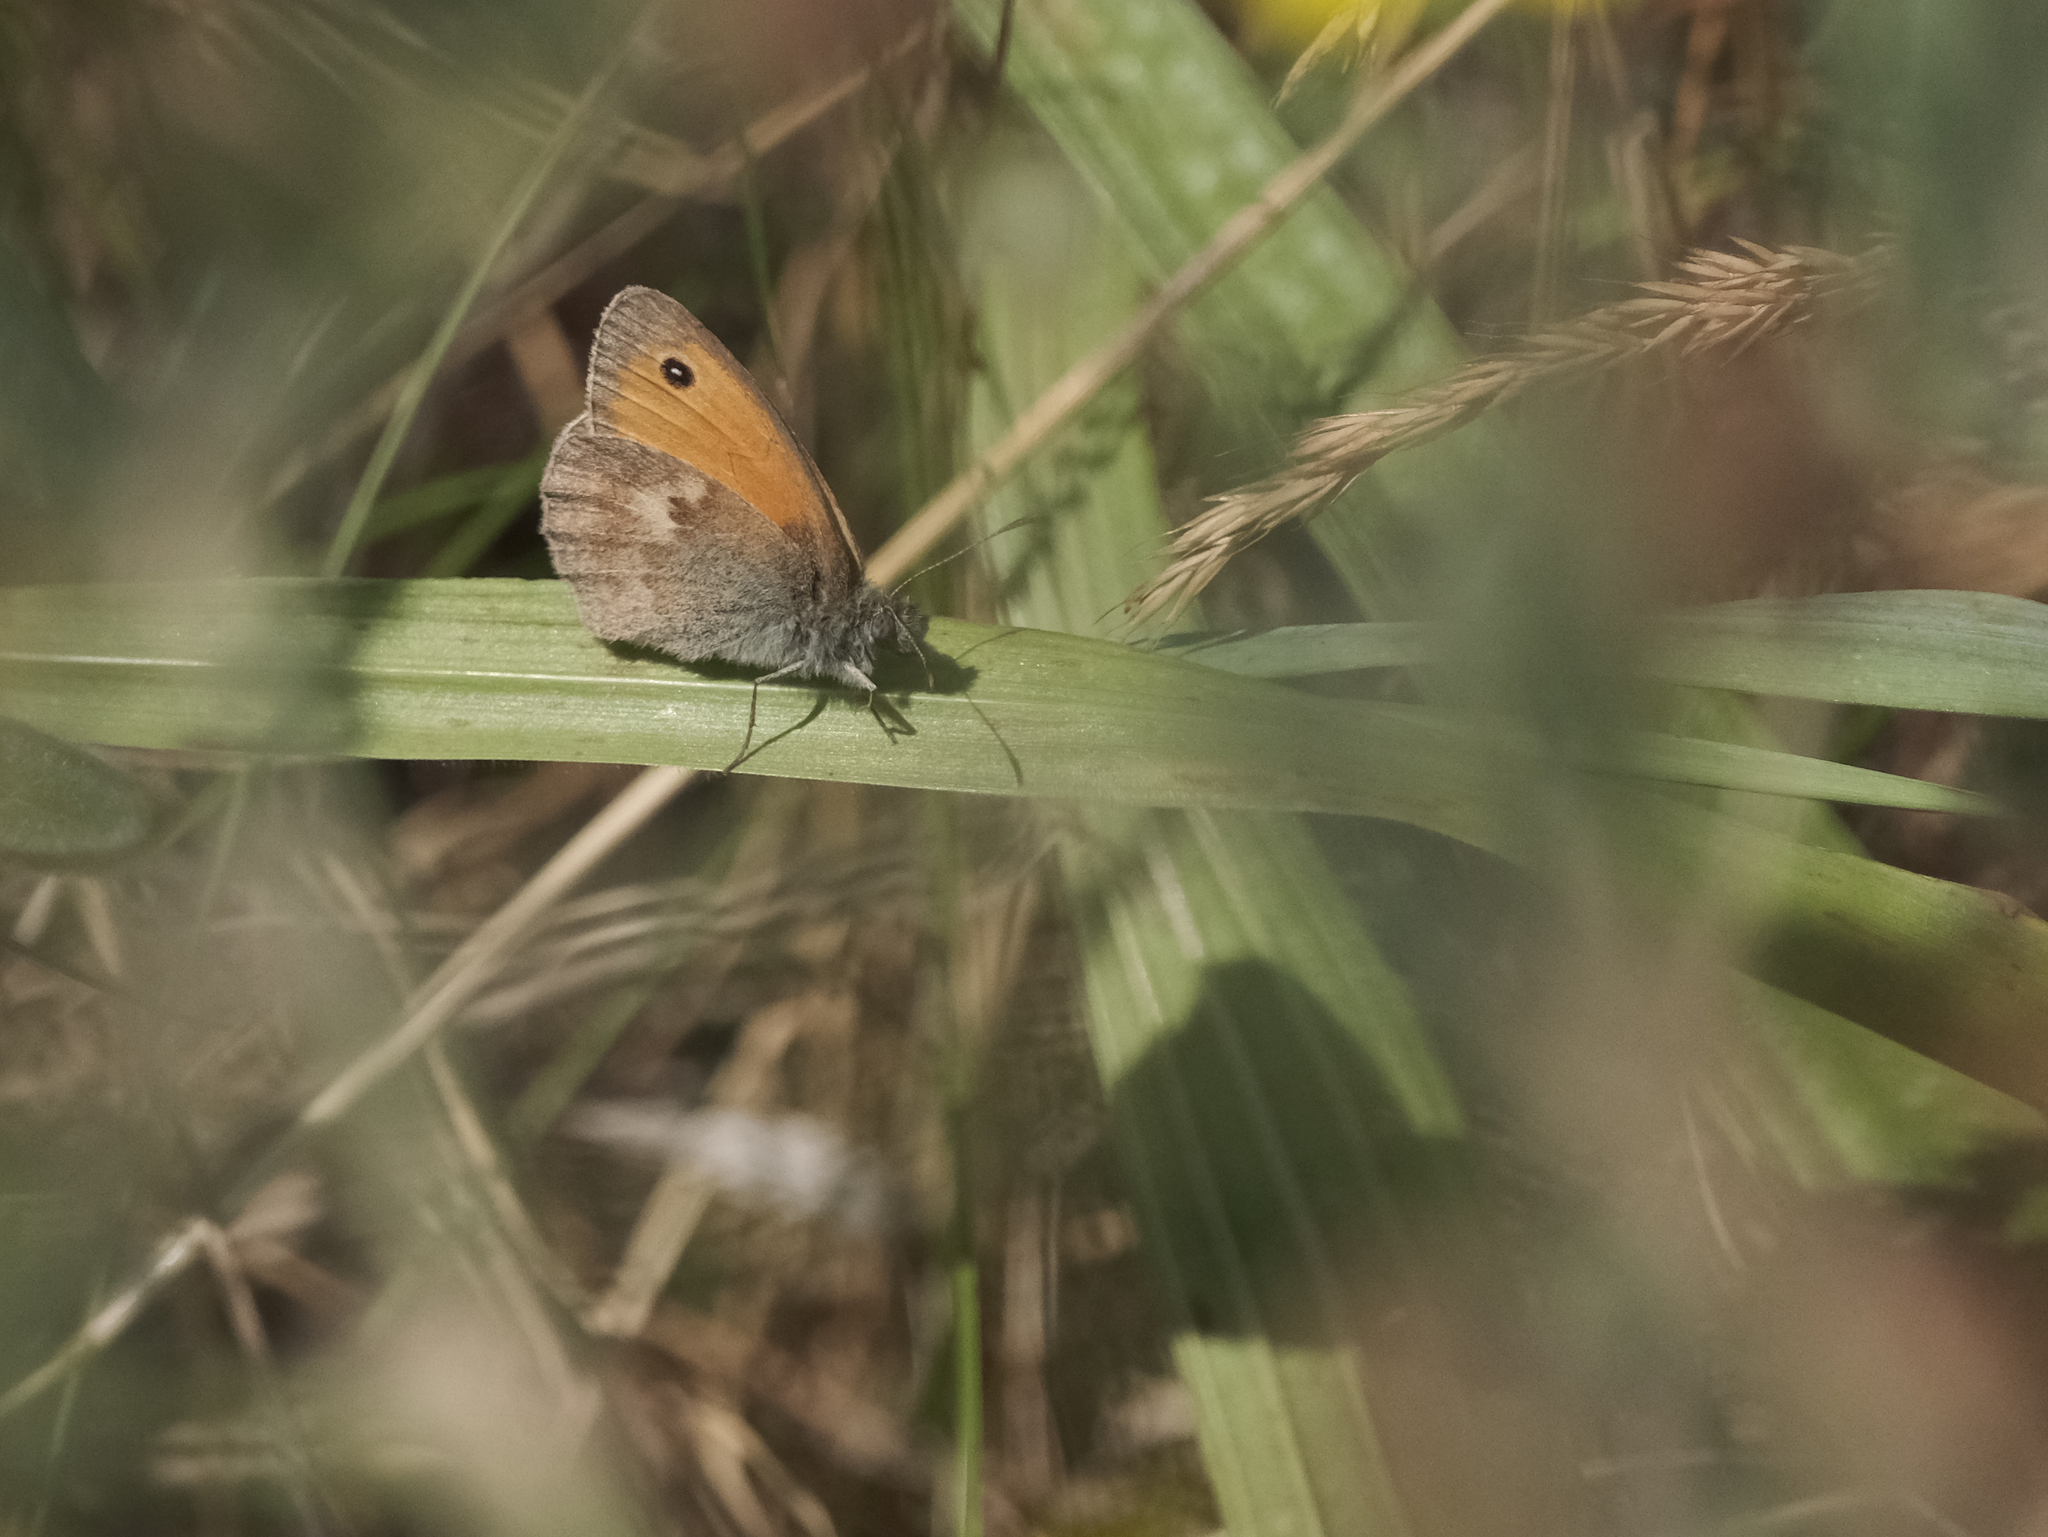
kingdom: Animalia
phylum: Arthropoda
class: Insecta
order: Lepidoptera
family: Nymphalidae
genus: Coenonympha
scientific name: Coenonympha pamphilus
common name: Small heath
